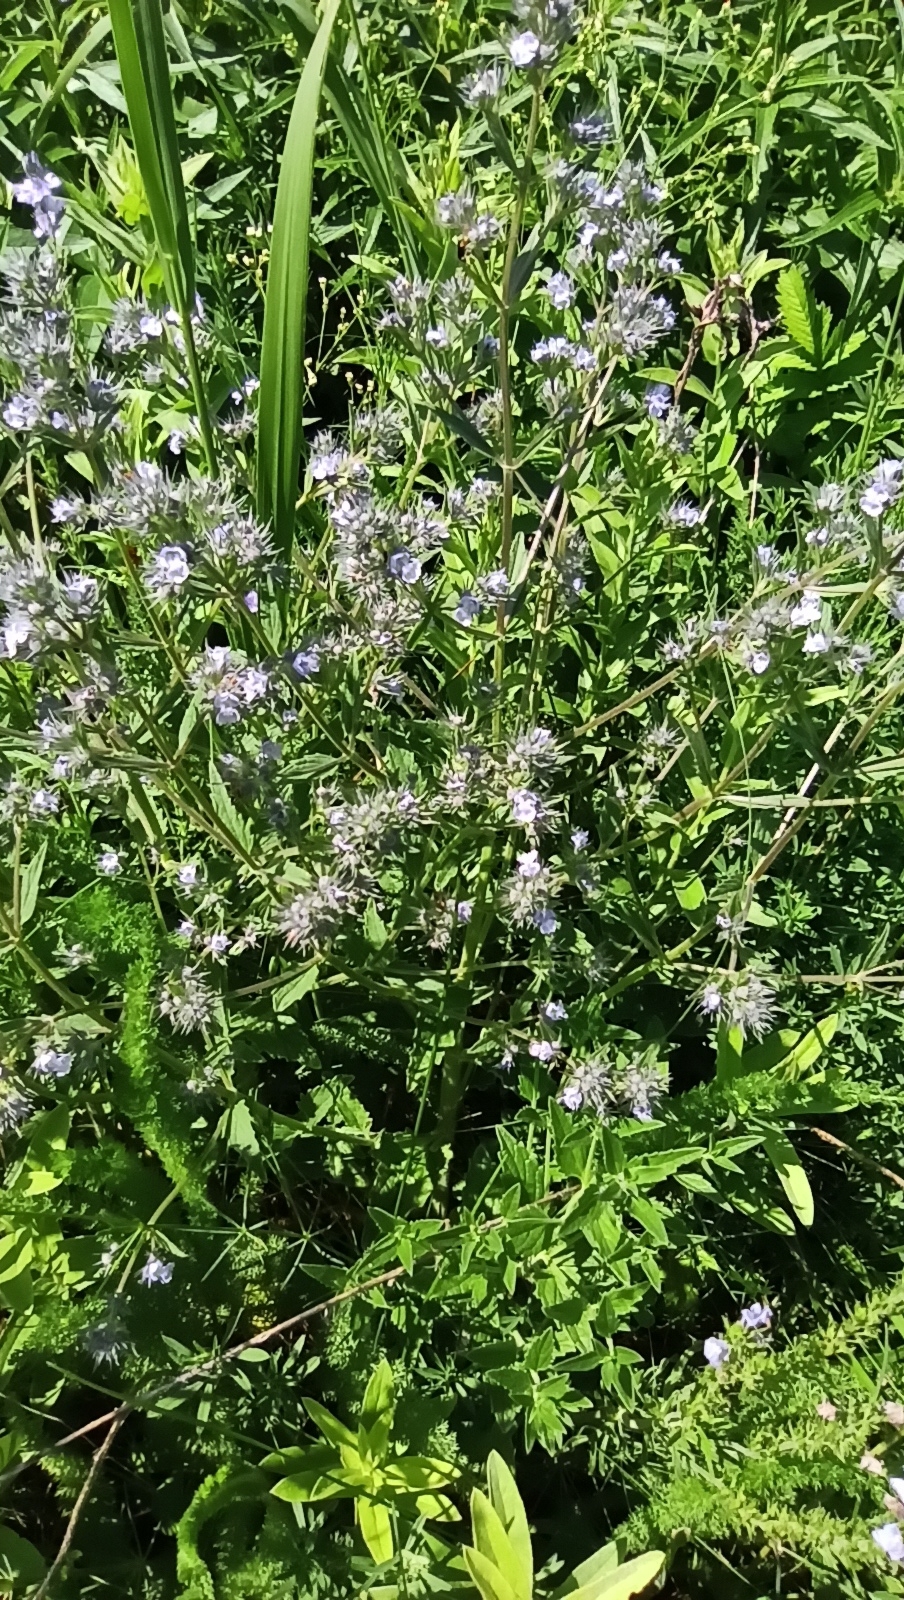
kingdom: Plantae
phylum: Tracheophyta
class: Magnoliopsida
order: Lamiales
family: Lamiaceae
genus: Nepeta
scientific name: Nepeta
